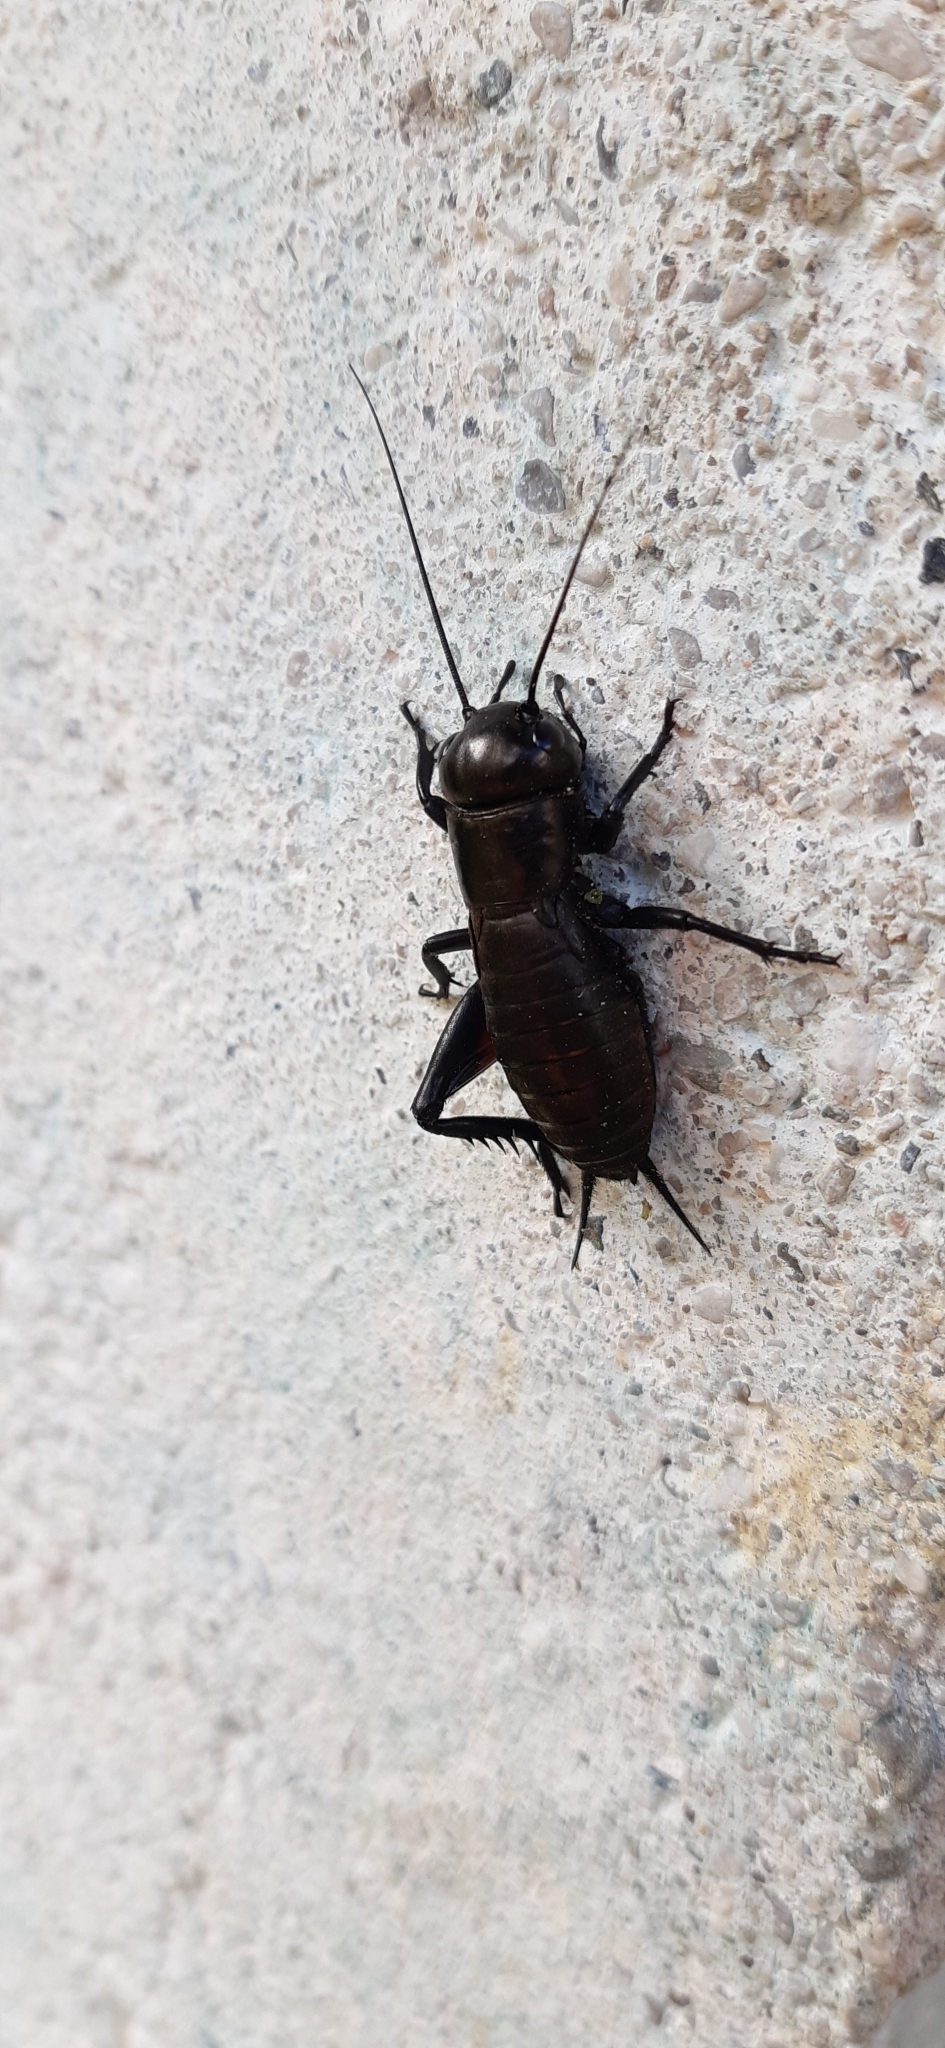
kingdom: Animalia
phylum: Arthropoda
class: Insecta
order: Orthoptera
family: Gryllidae
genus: Gryllus
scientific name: Gryllus campestris
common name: Field cricket
